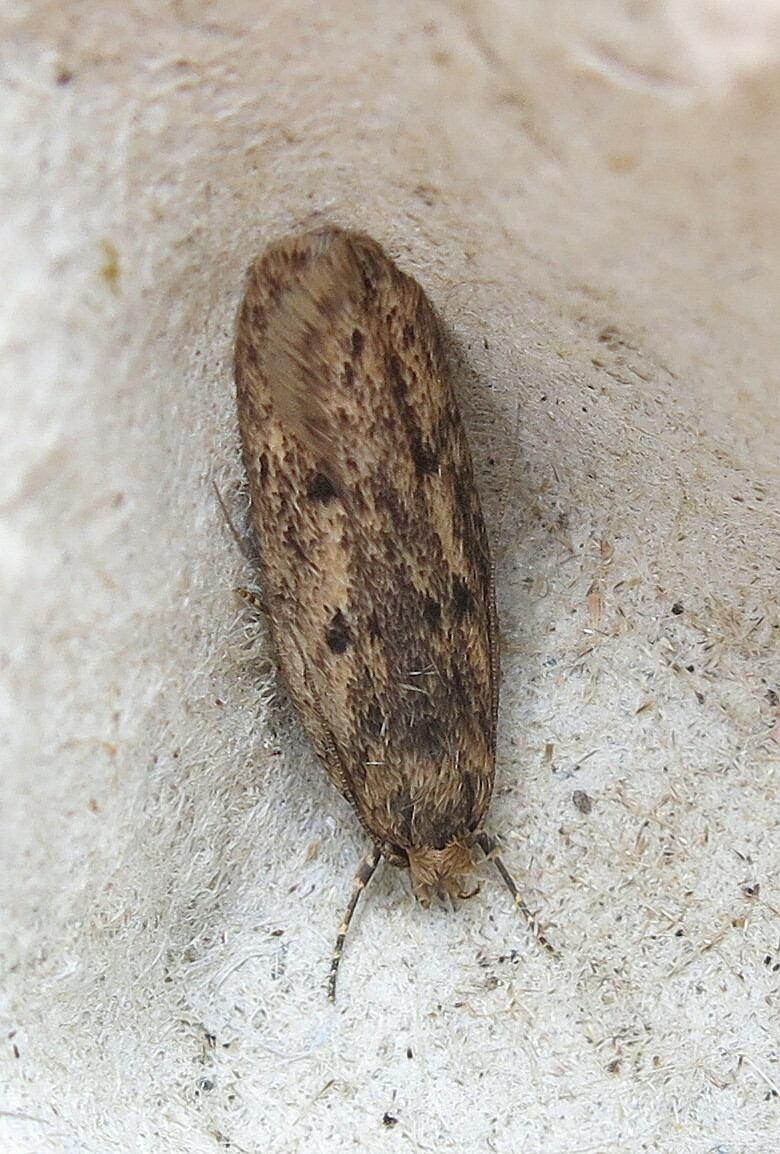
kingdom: Animalia
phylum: Arthropoda
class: Insecta
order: Lepidoptera
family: Oecophoridae
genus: Hofmannophila
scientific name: Hofmannophila pseudospretella
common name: Brown house moth
